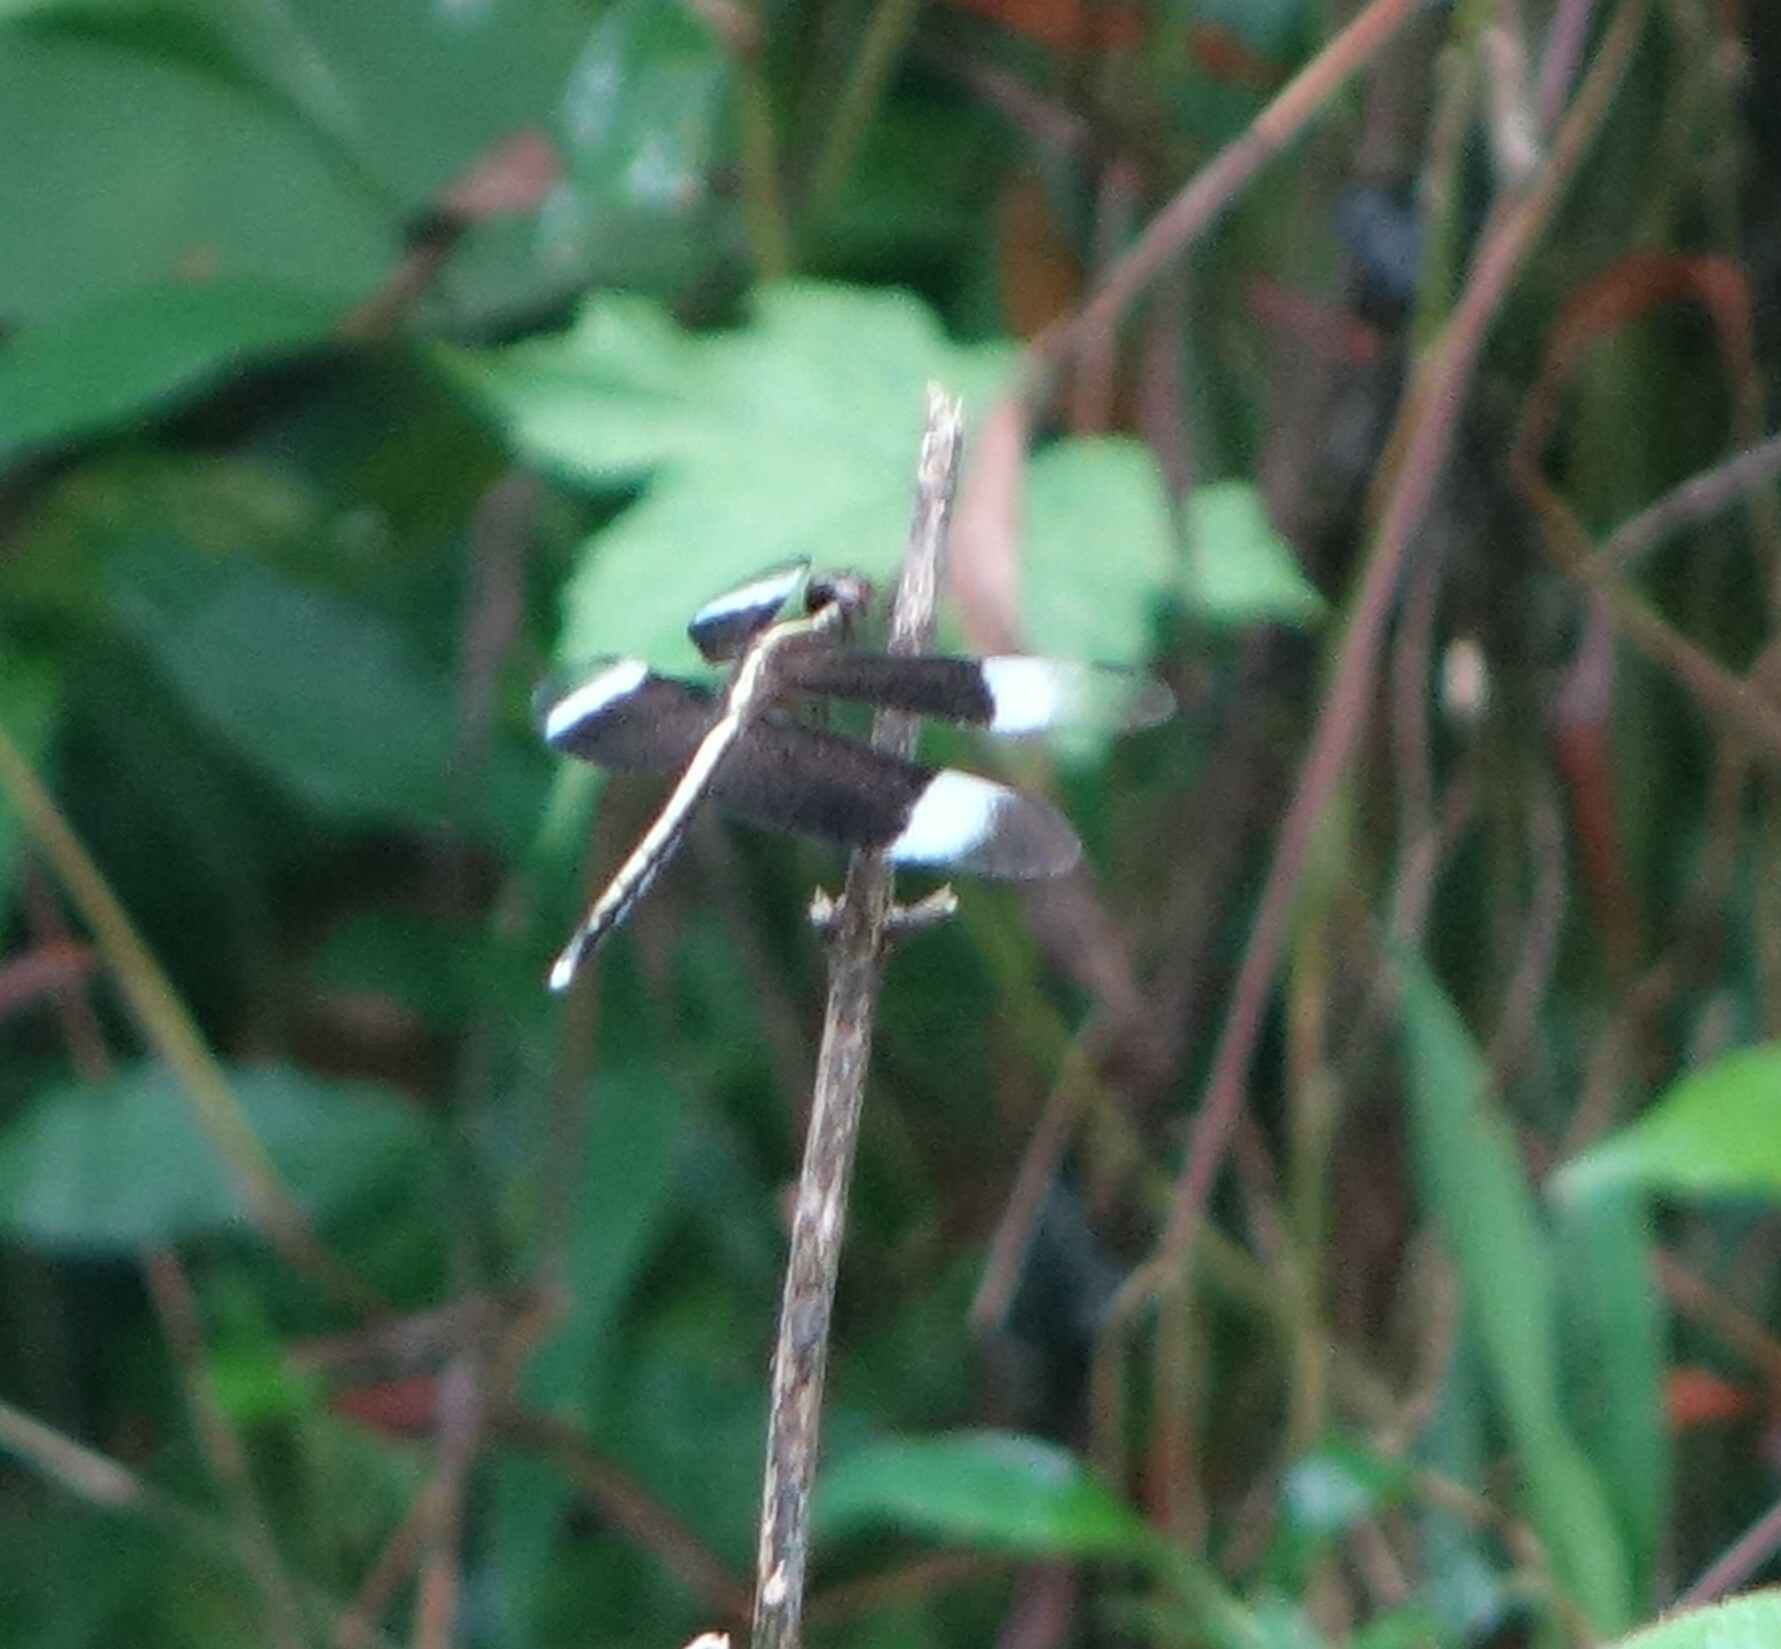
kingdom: Animalia
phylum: Arthropoda
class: Insecta
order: Odonata
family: Libellulidae
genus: Neurothemis
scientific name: Neurothemis tullia
